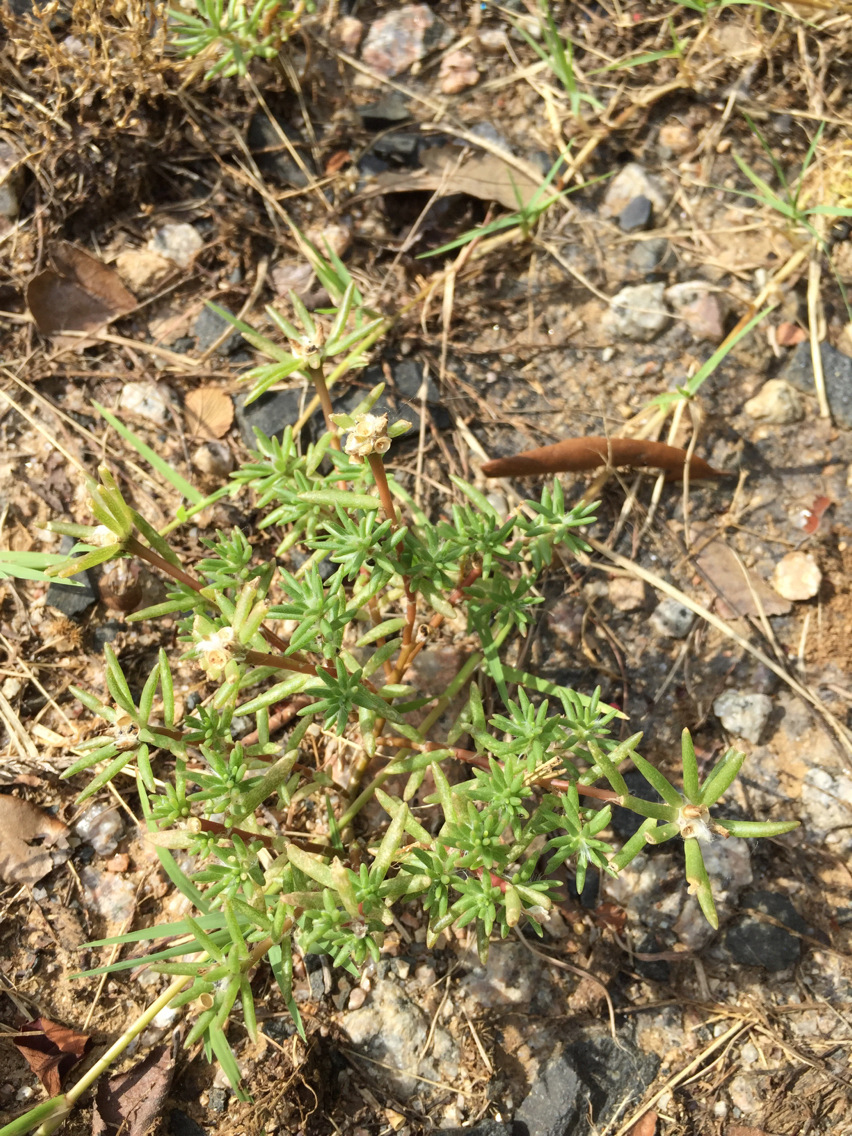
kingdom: Plantae
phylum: Tracheophyta
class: Magnoliopsida
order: Caryophyllales
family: Portulacaceae
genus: Portulaca
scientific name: Portulaca pilosa
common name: Kiss me quick
